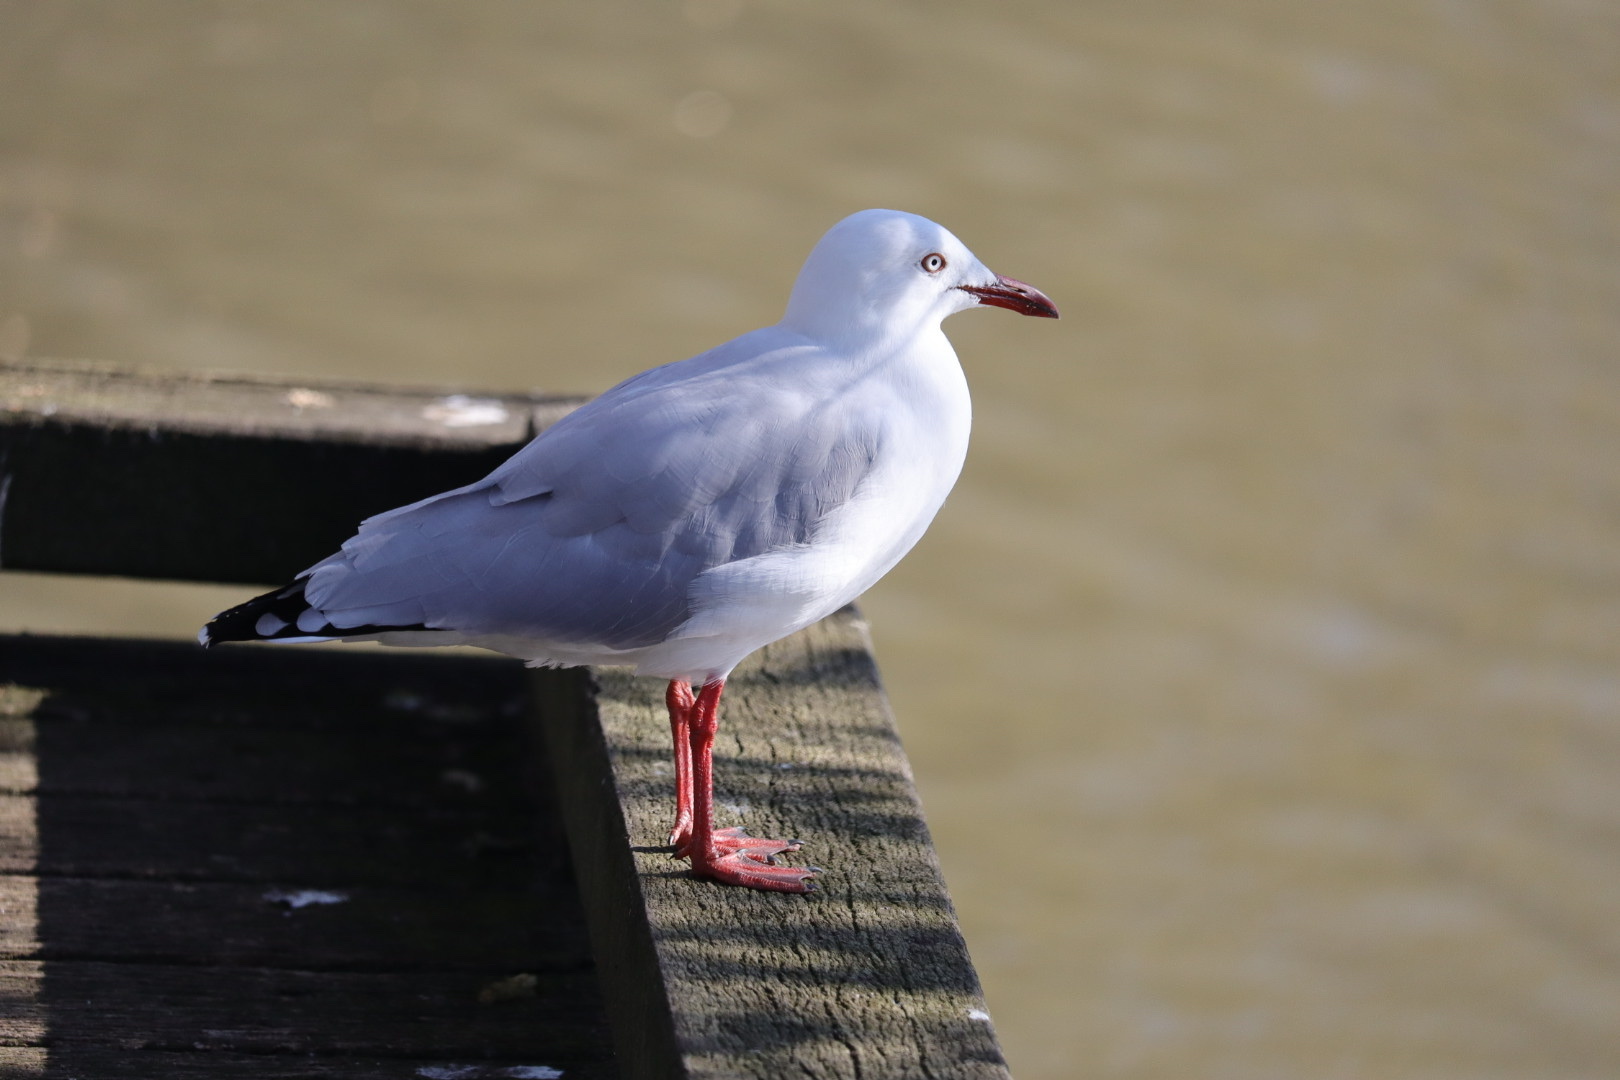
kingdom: Animalia
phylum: Chordata
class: Aves
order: Charadriiformes
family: Laridae
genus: Chroicocephalus
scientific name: Chroicocephalus novaehollandiae
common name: Silver gull
